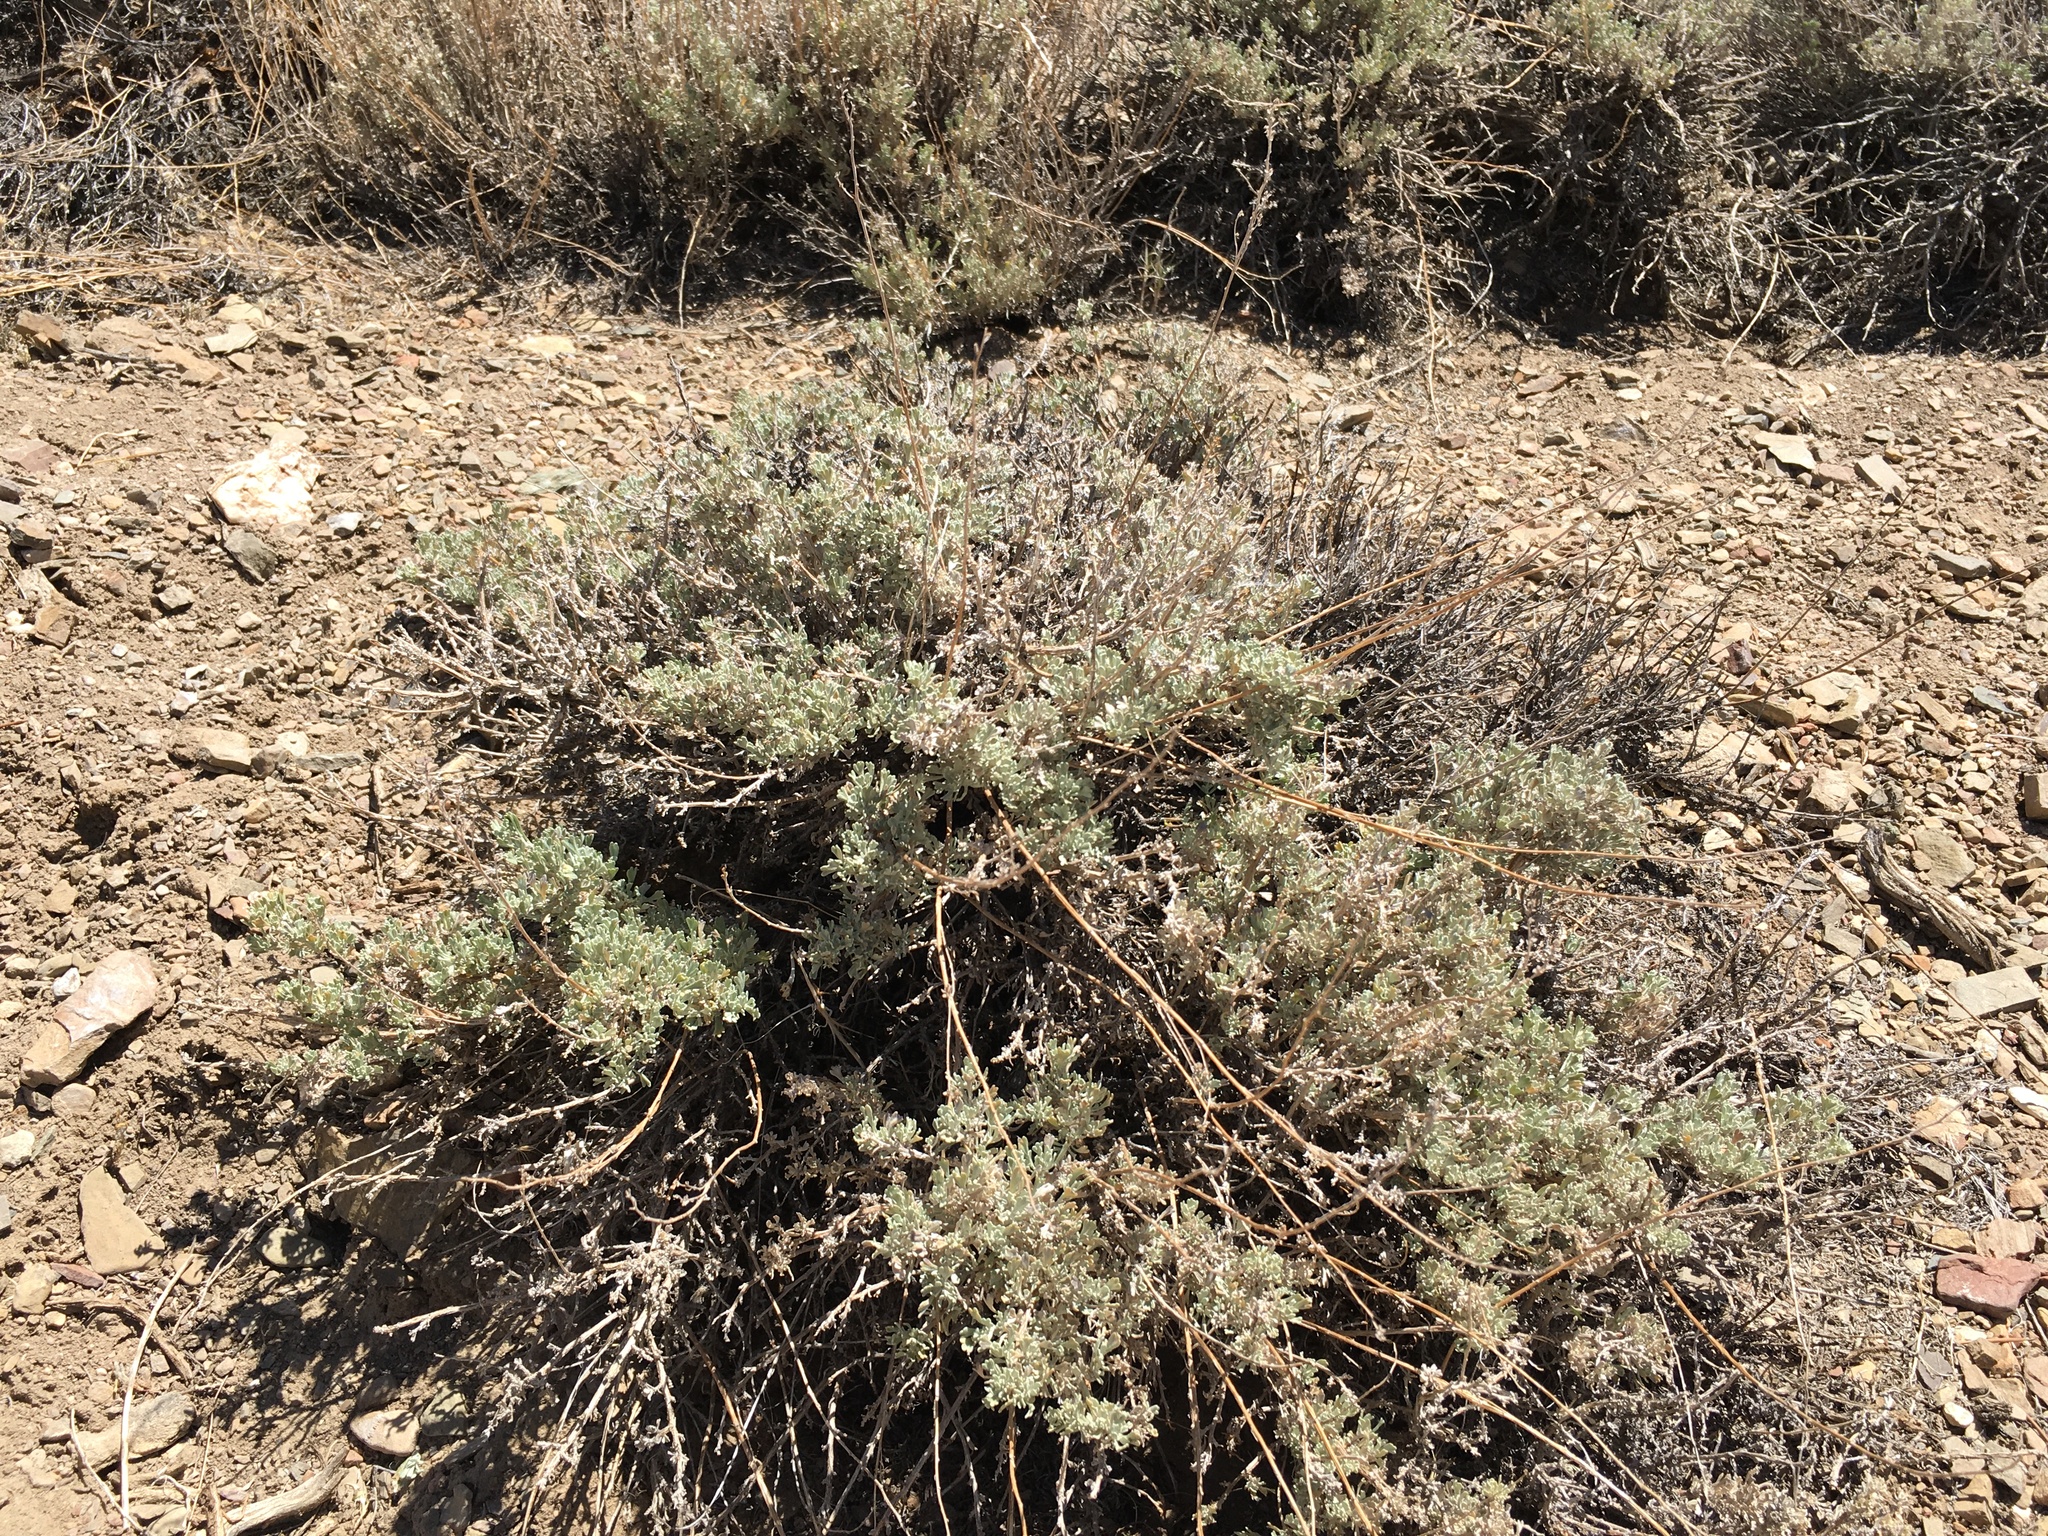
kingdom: Plantae
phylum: Tracheophyta
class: Magnoliopsida
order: Asterales
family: Asteraceae
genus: Artemisia
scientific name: Artemisia nova
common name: Black-sage
